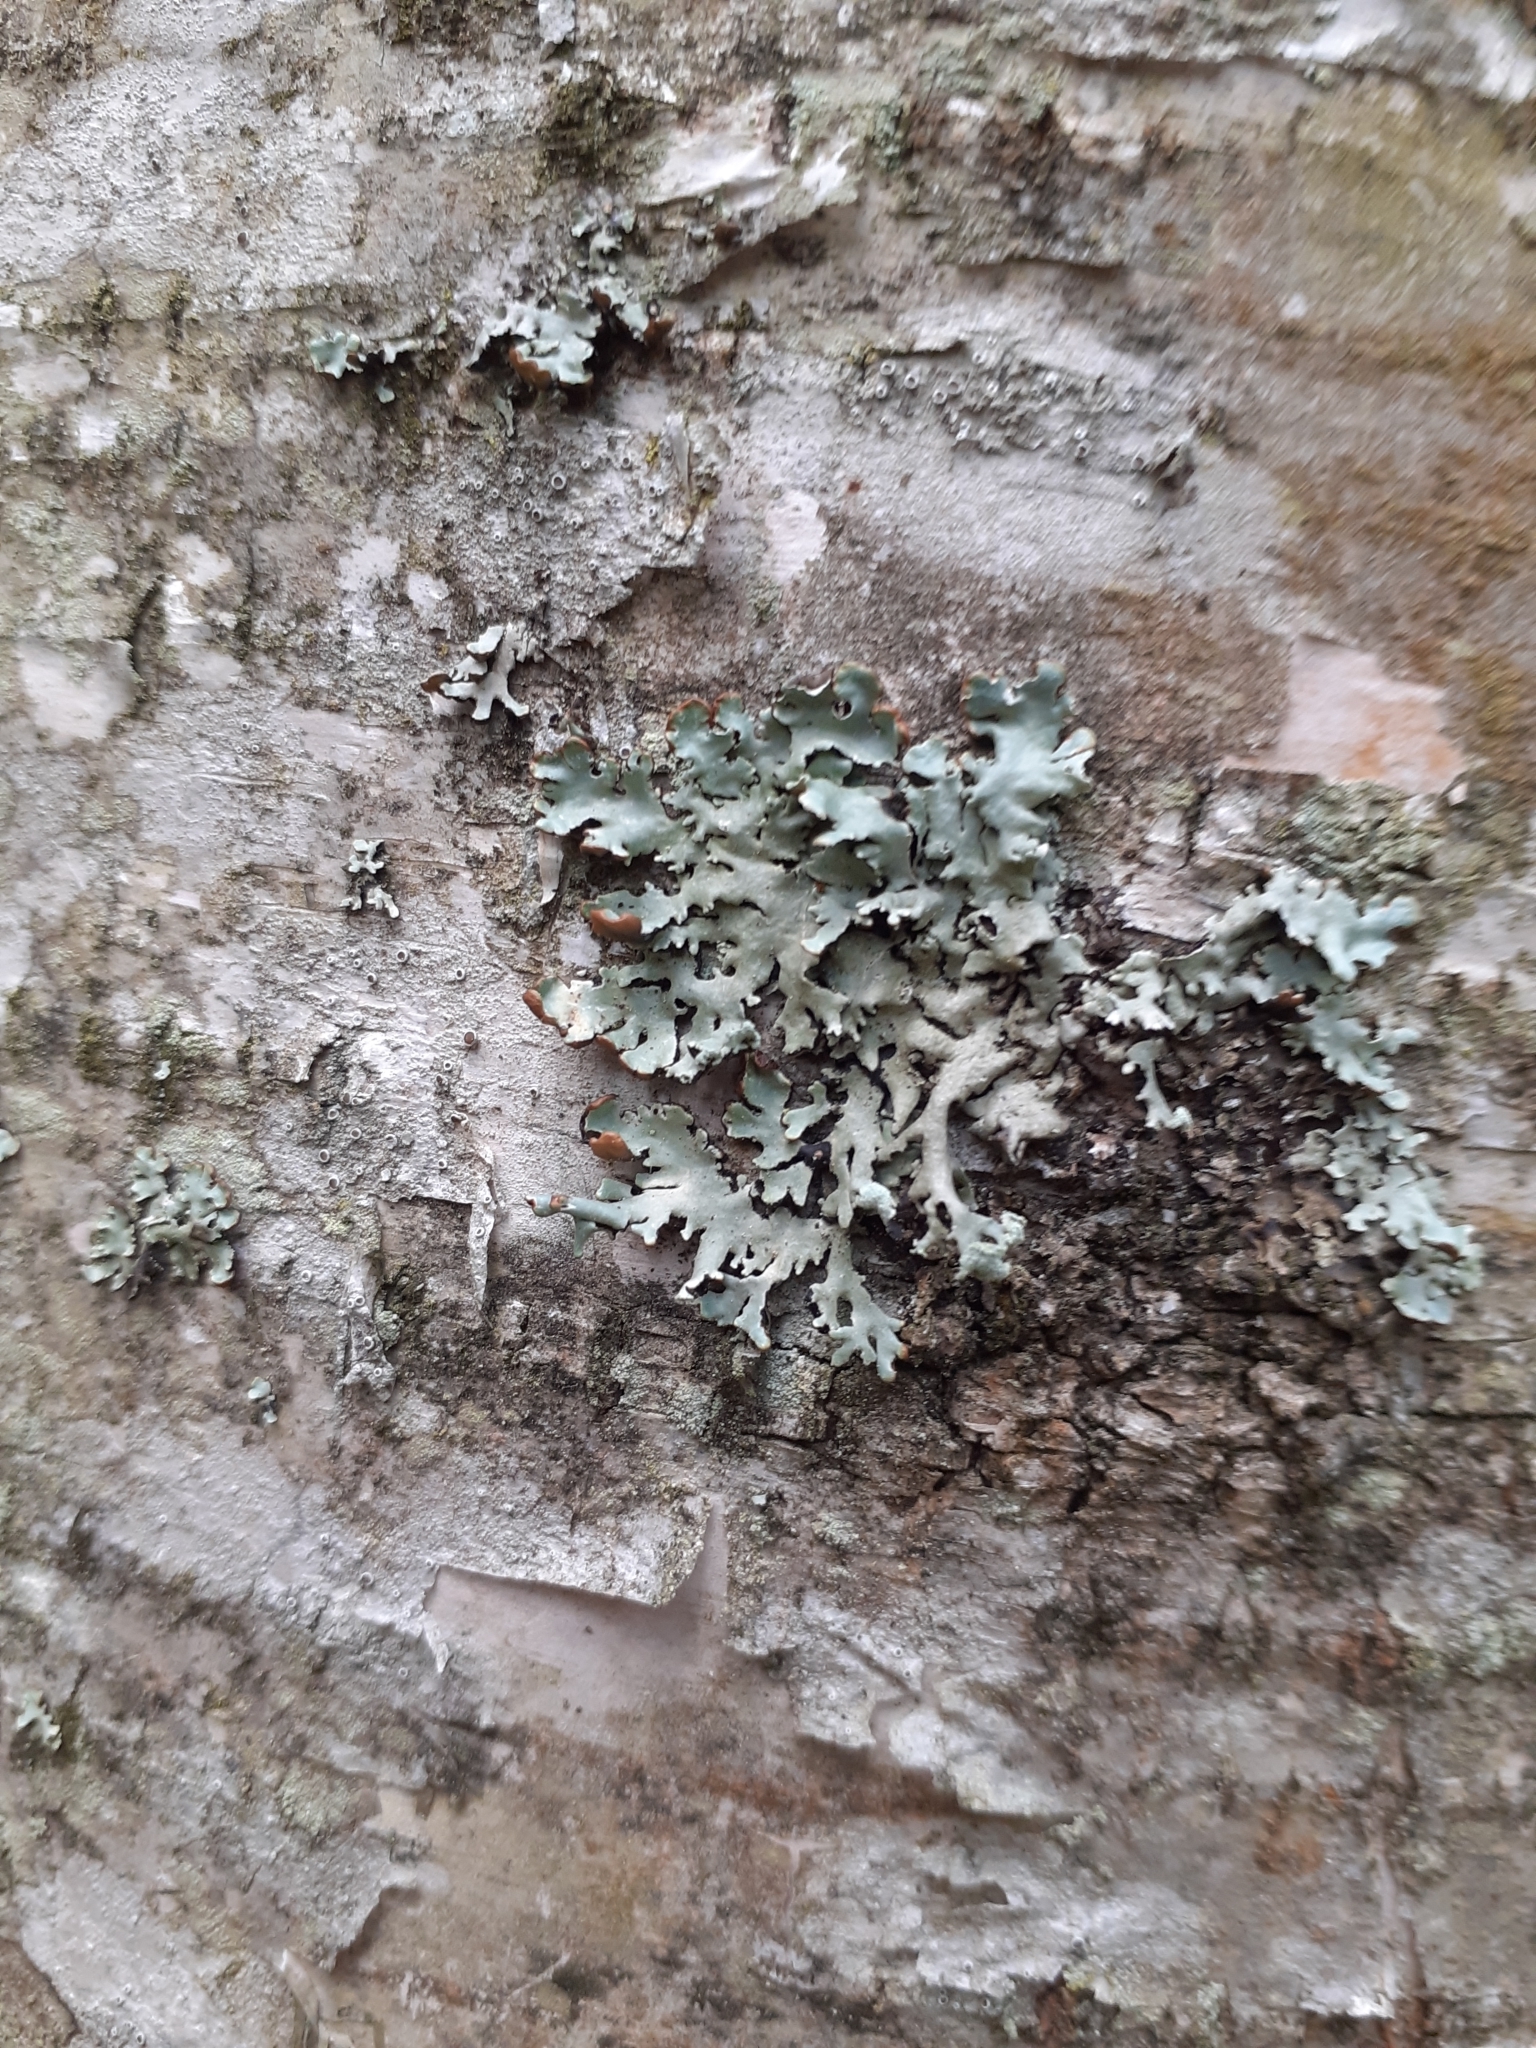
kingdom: Fungi
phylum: Ascomycota
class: Lecanoromycetes
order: Lecanorales
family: Parmeliaceae
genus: Hypogymnia
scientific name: Hypogymnia physodes
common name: Dark crottle
